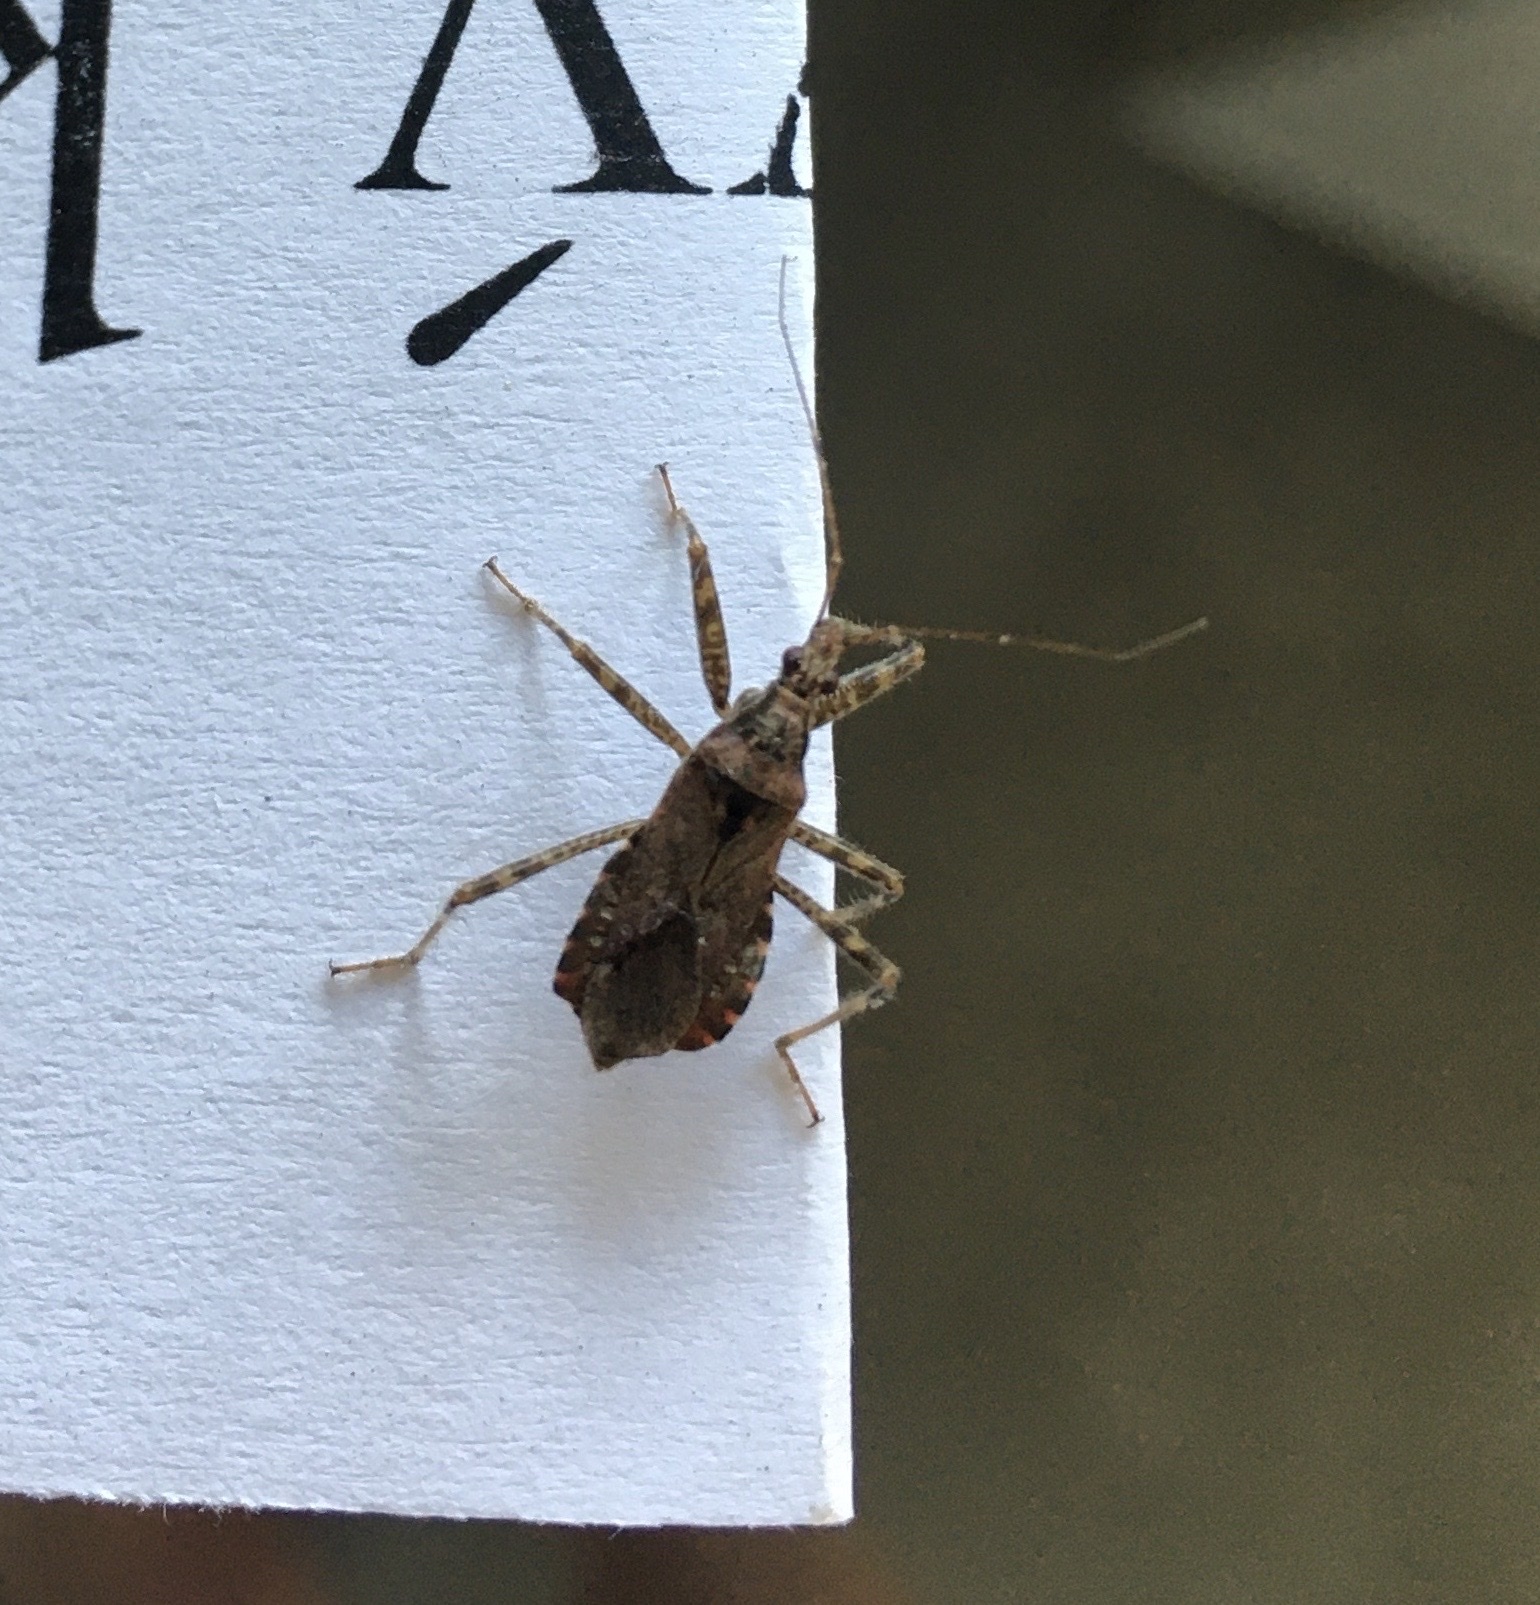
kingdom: Animalia
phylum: Arthropoda
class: Insecta
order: Hemiptera
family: Nabidae
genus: Himacerus
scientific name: Himacerus apterus
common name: Tree damsel bug
